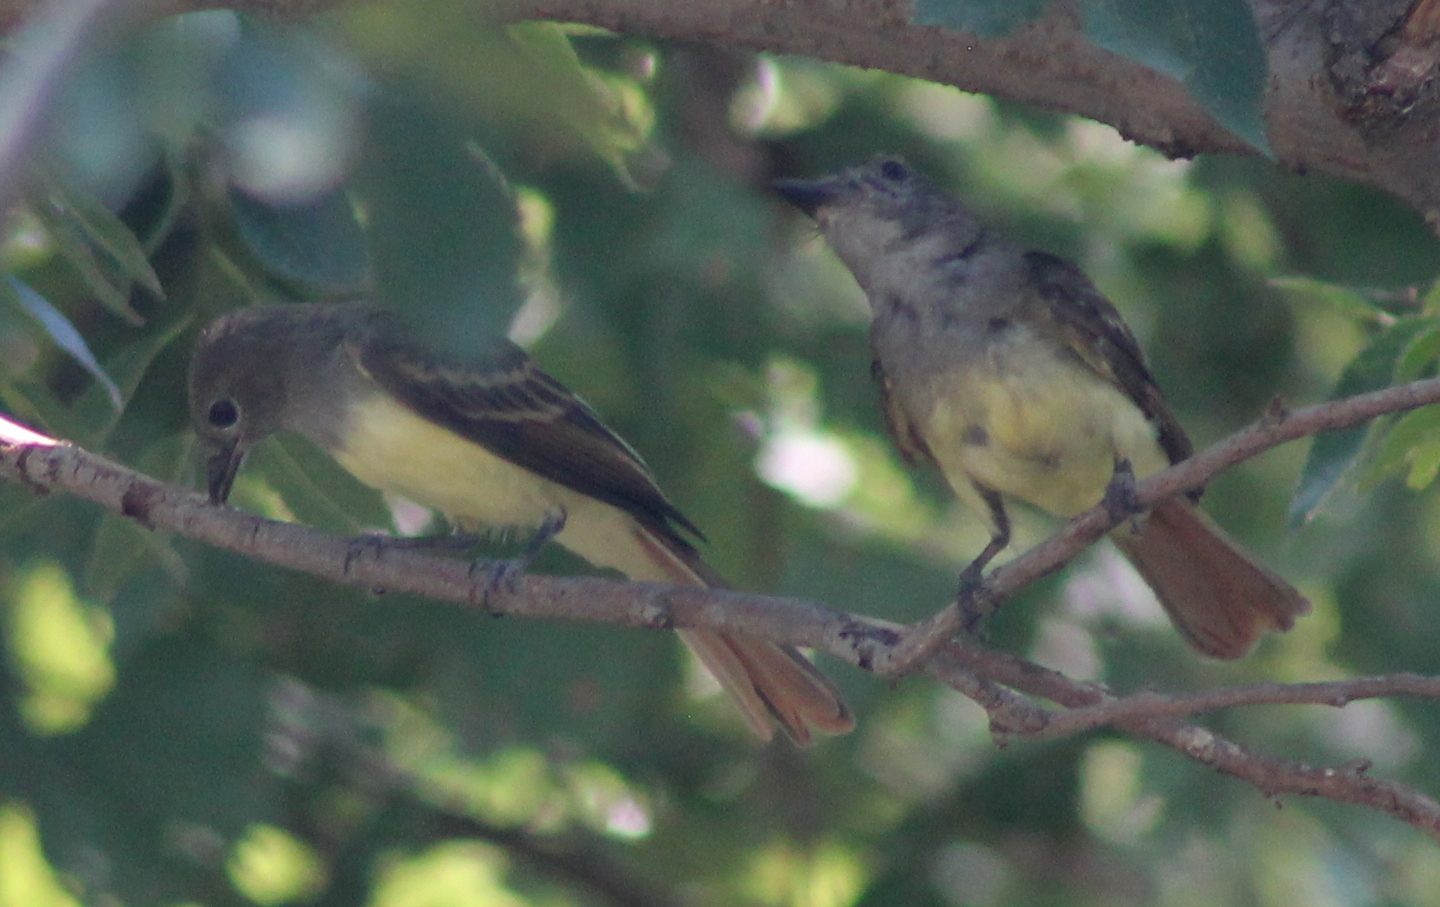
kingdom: Animalia
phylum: Chordata
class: Aves
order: Passeriformes
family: Tyrannidae
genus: Myiarchus
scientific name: Myiarchus crinitus
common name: Great crested flycatcher
